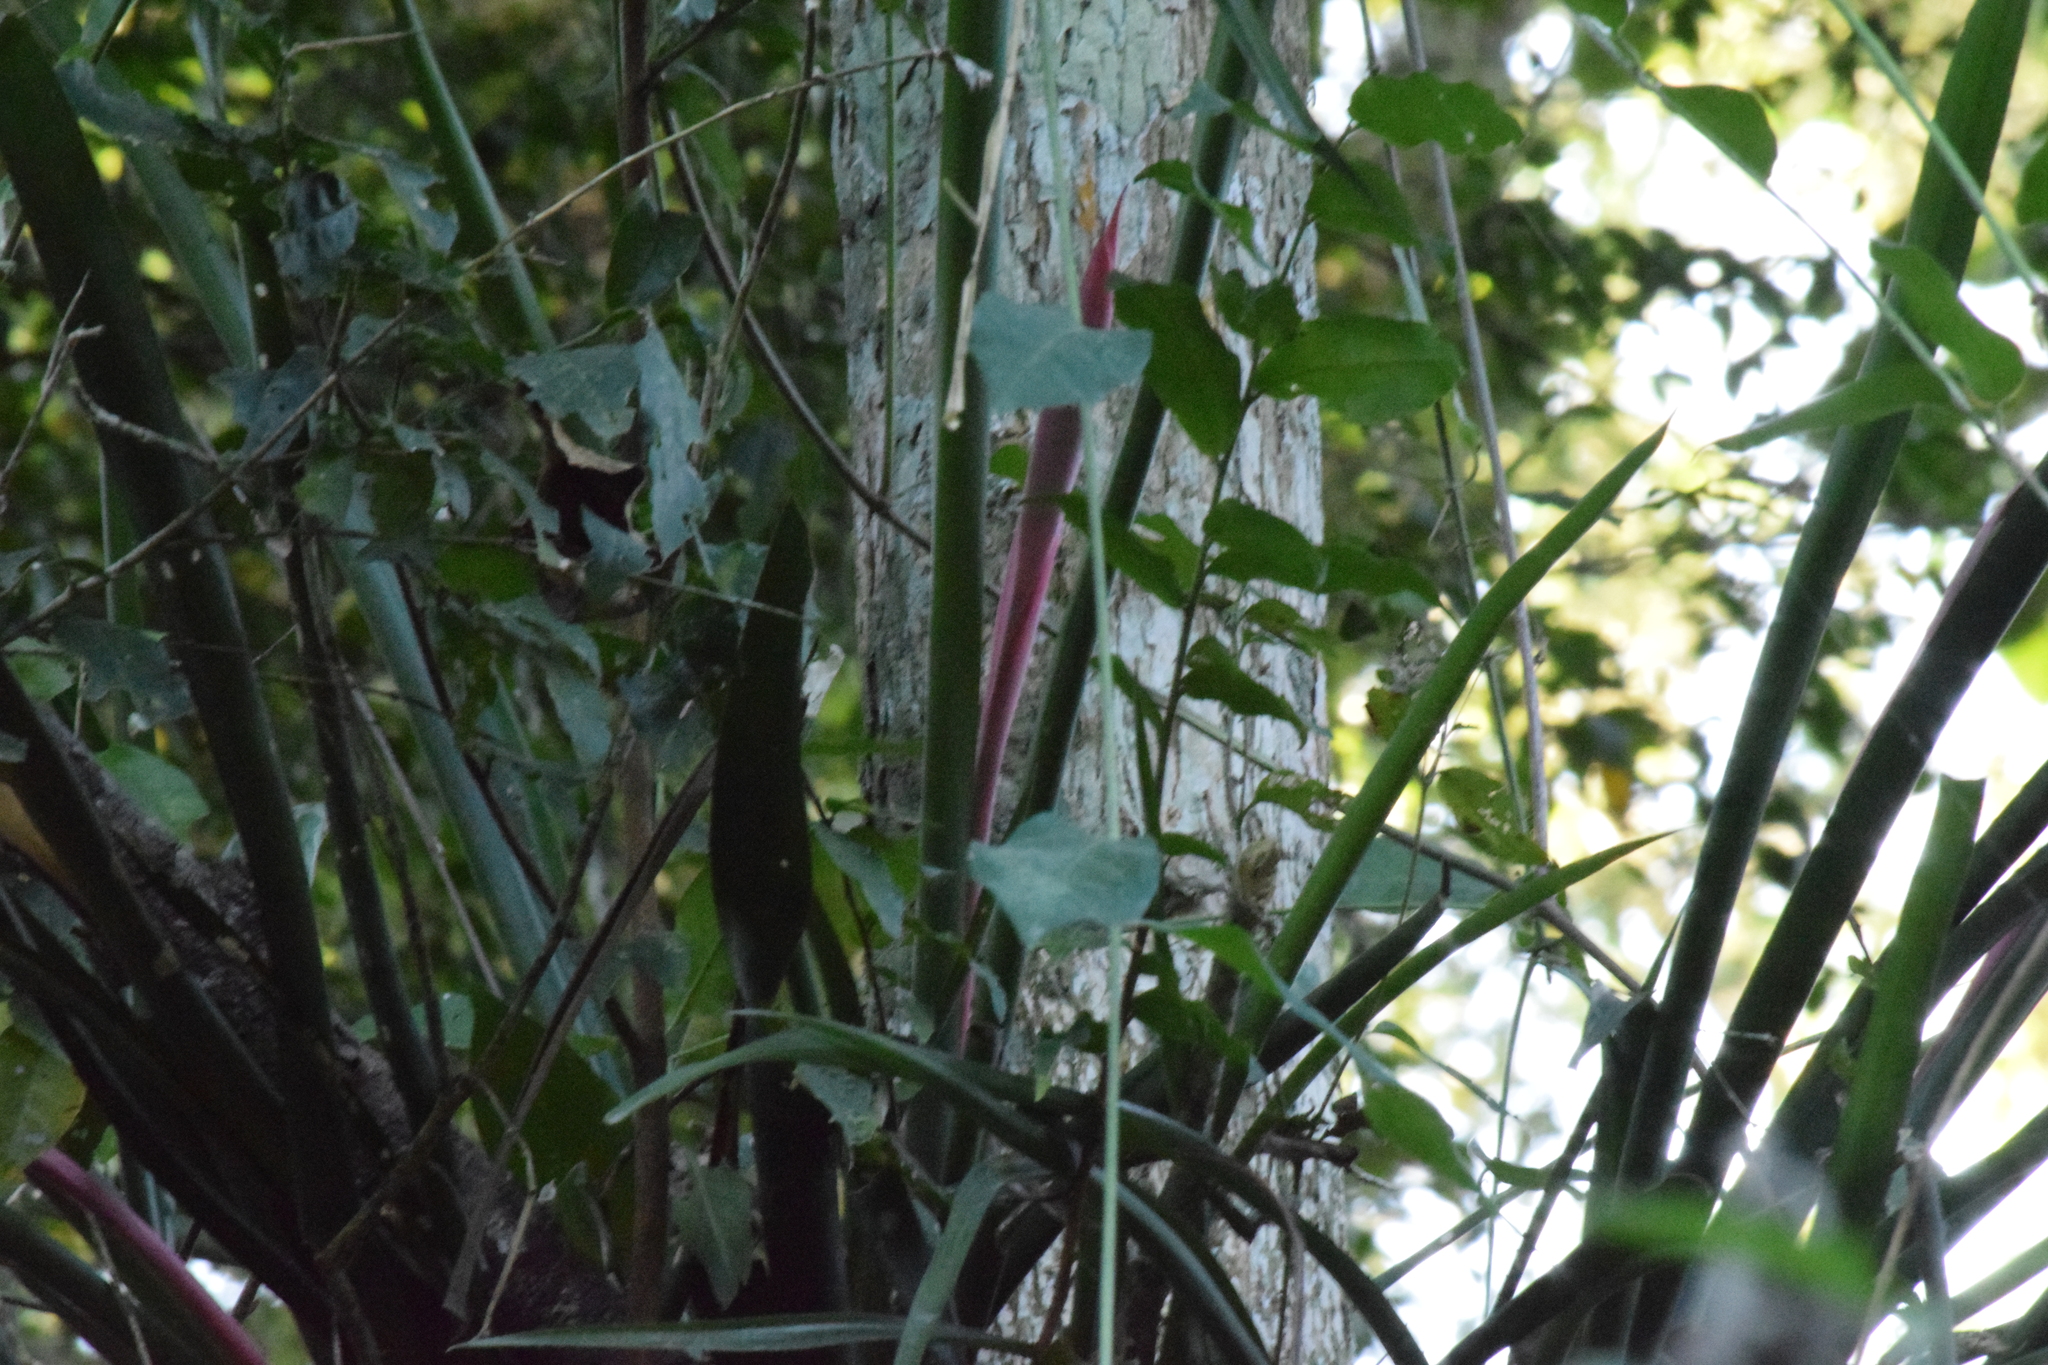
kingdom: Plantae
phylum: Tracheophyta
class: Liliopsida
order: Poales
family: Bromeliaceae
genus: Billbergia
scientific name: Billbergia distachia
